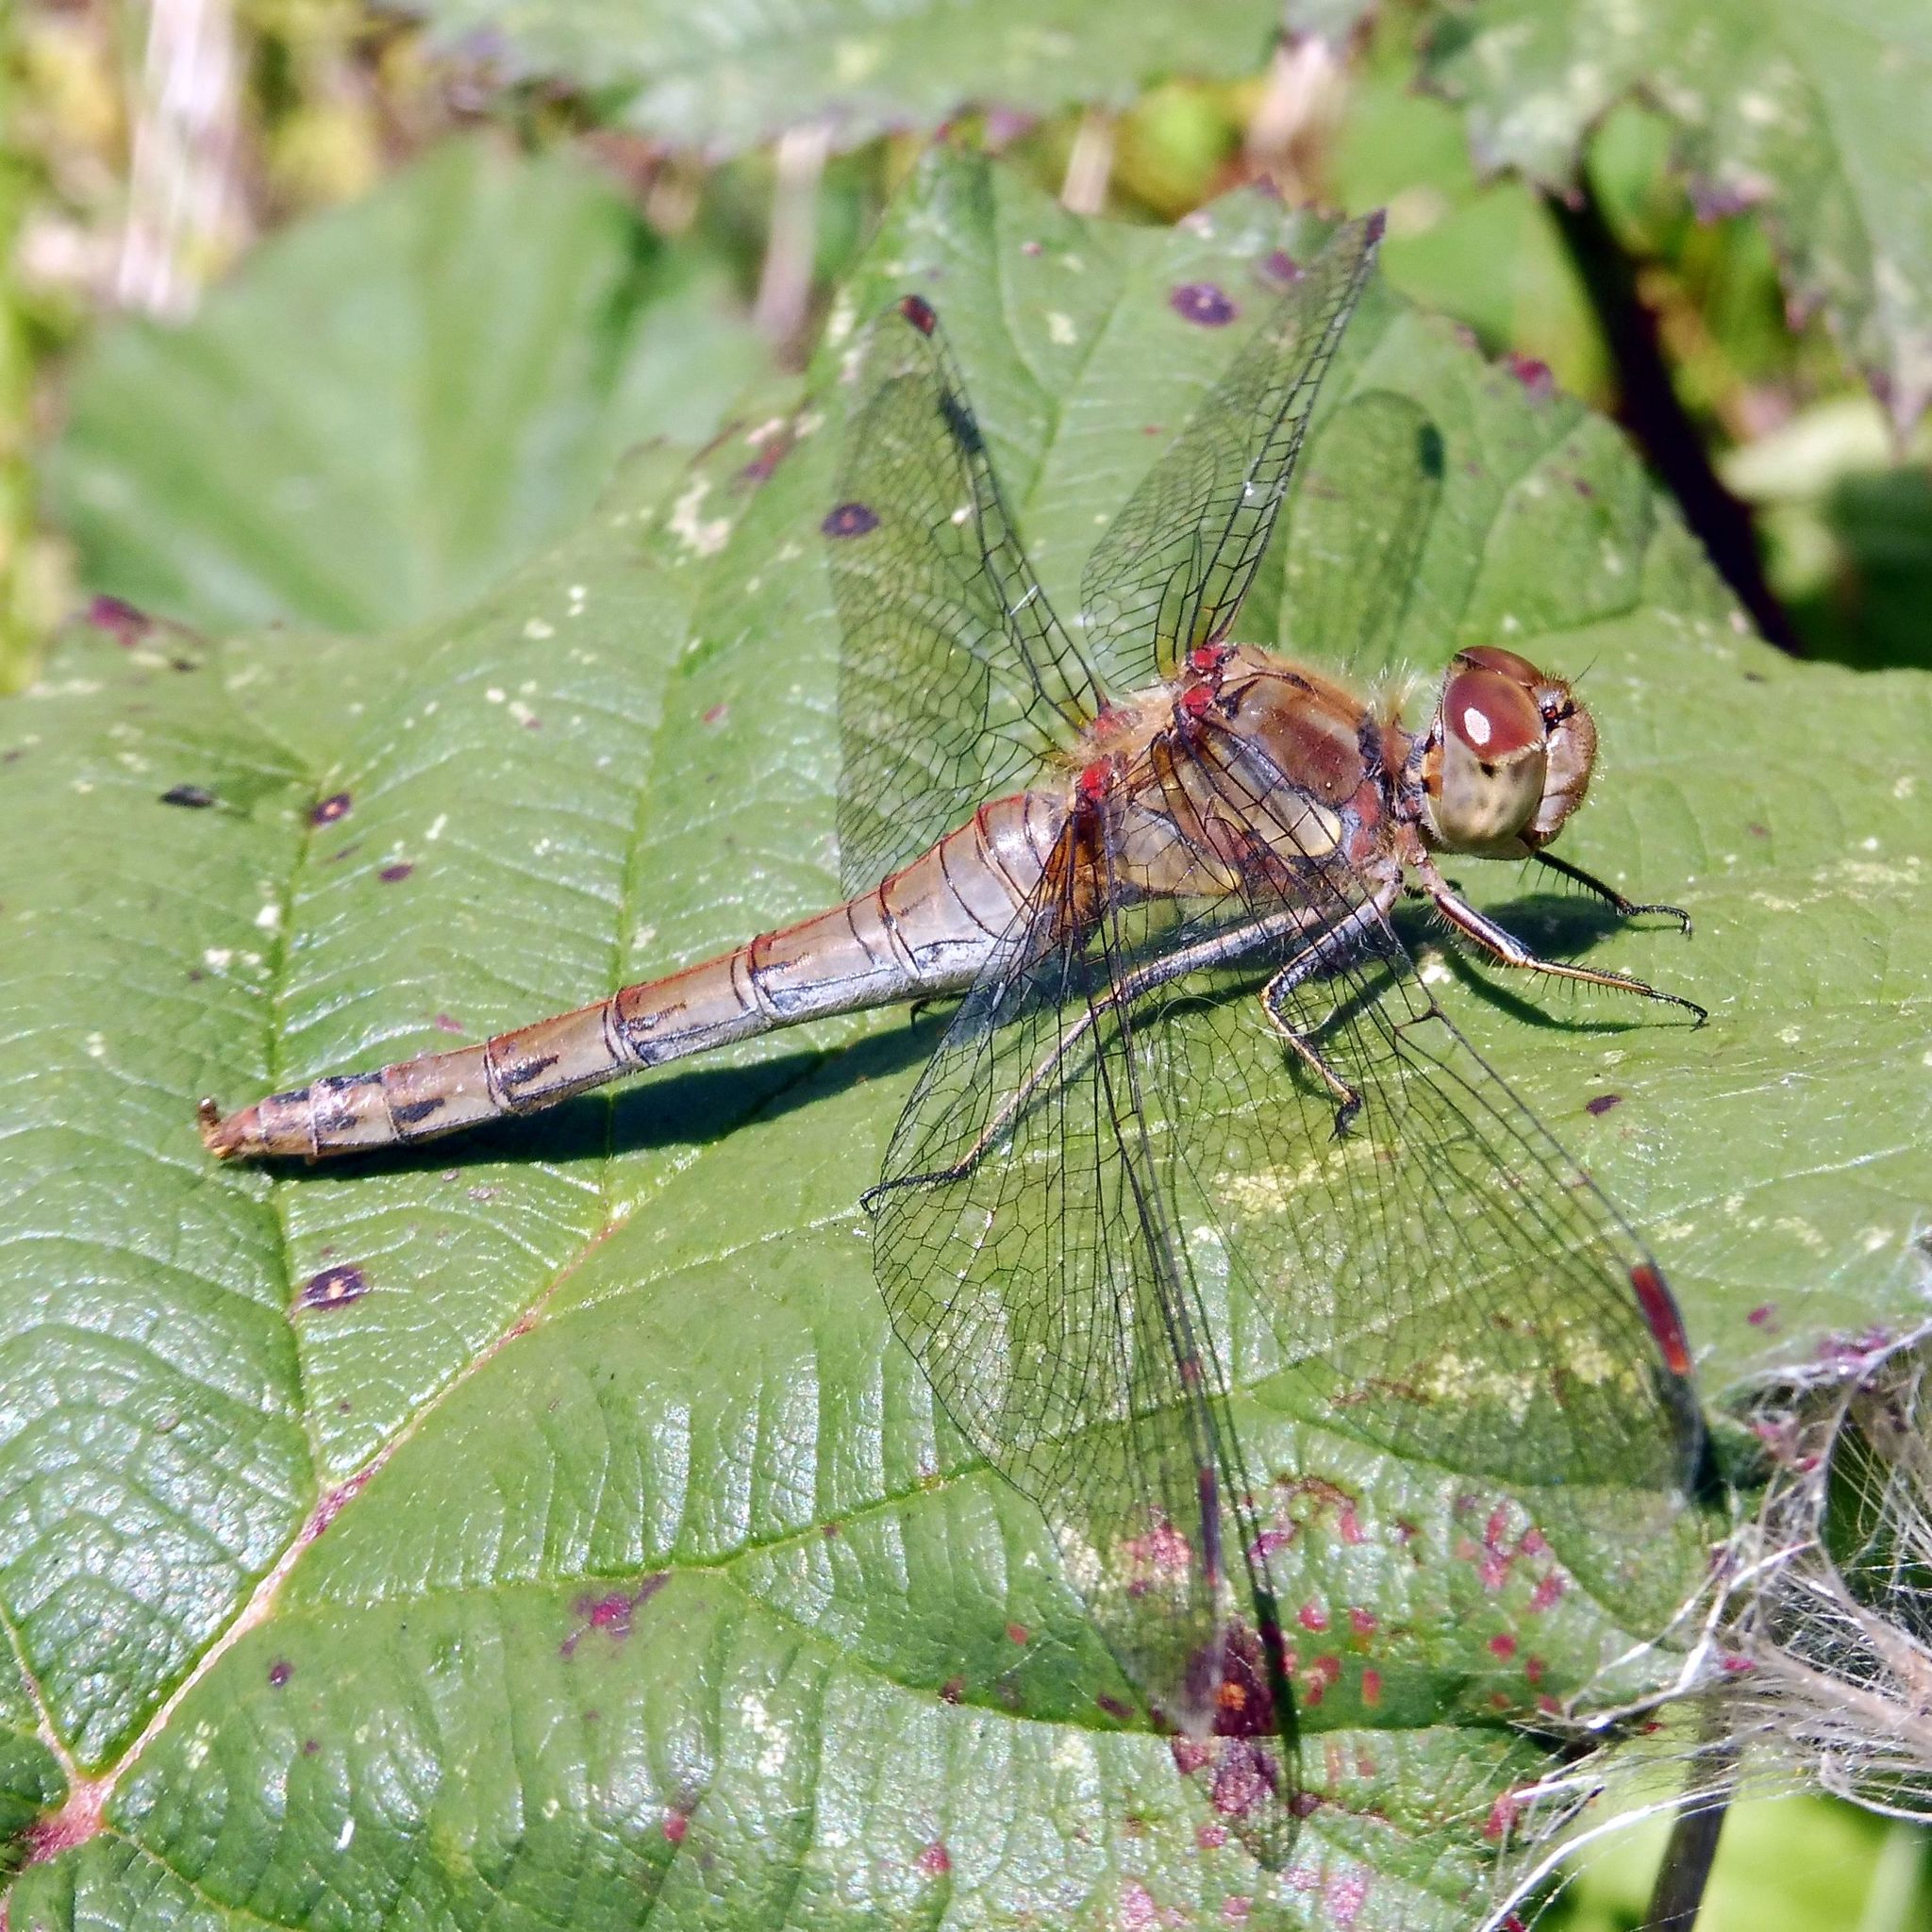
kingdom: Animalia
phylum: Arthropoda
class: Insecta
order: Odonata
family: Libellulidae
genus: Sympetrum
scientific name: Sympetrum striolatum
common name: Common darter
